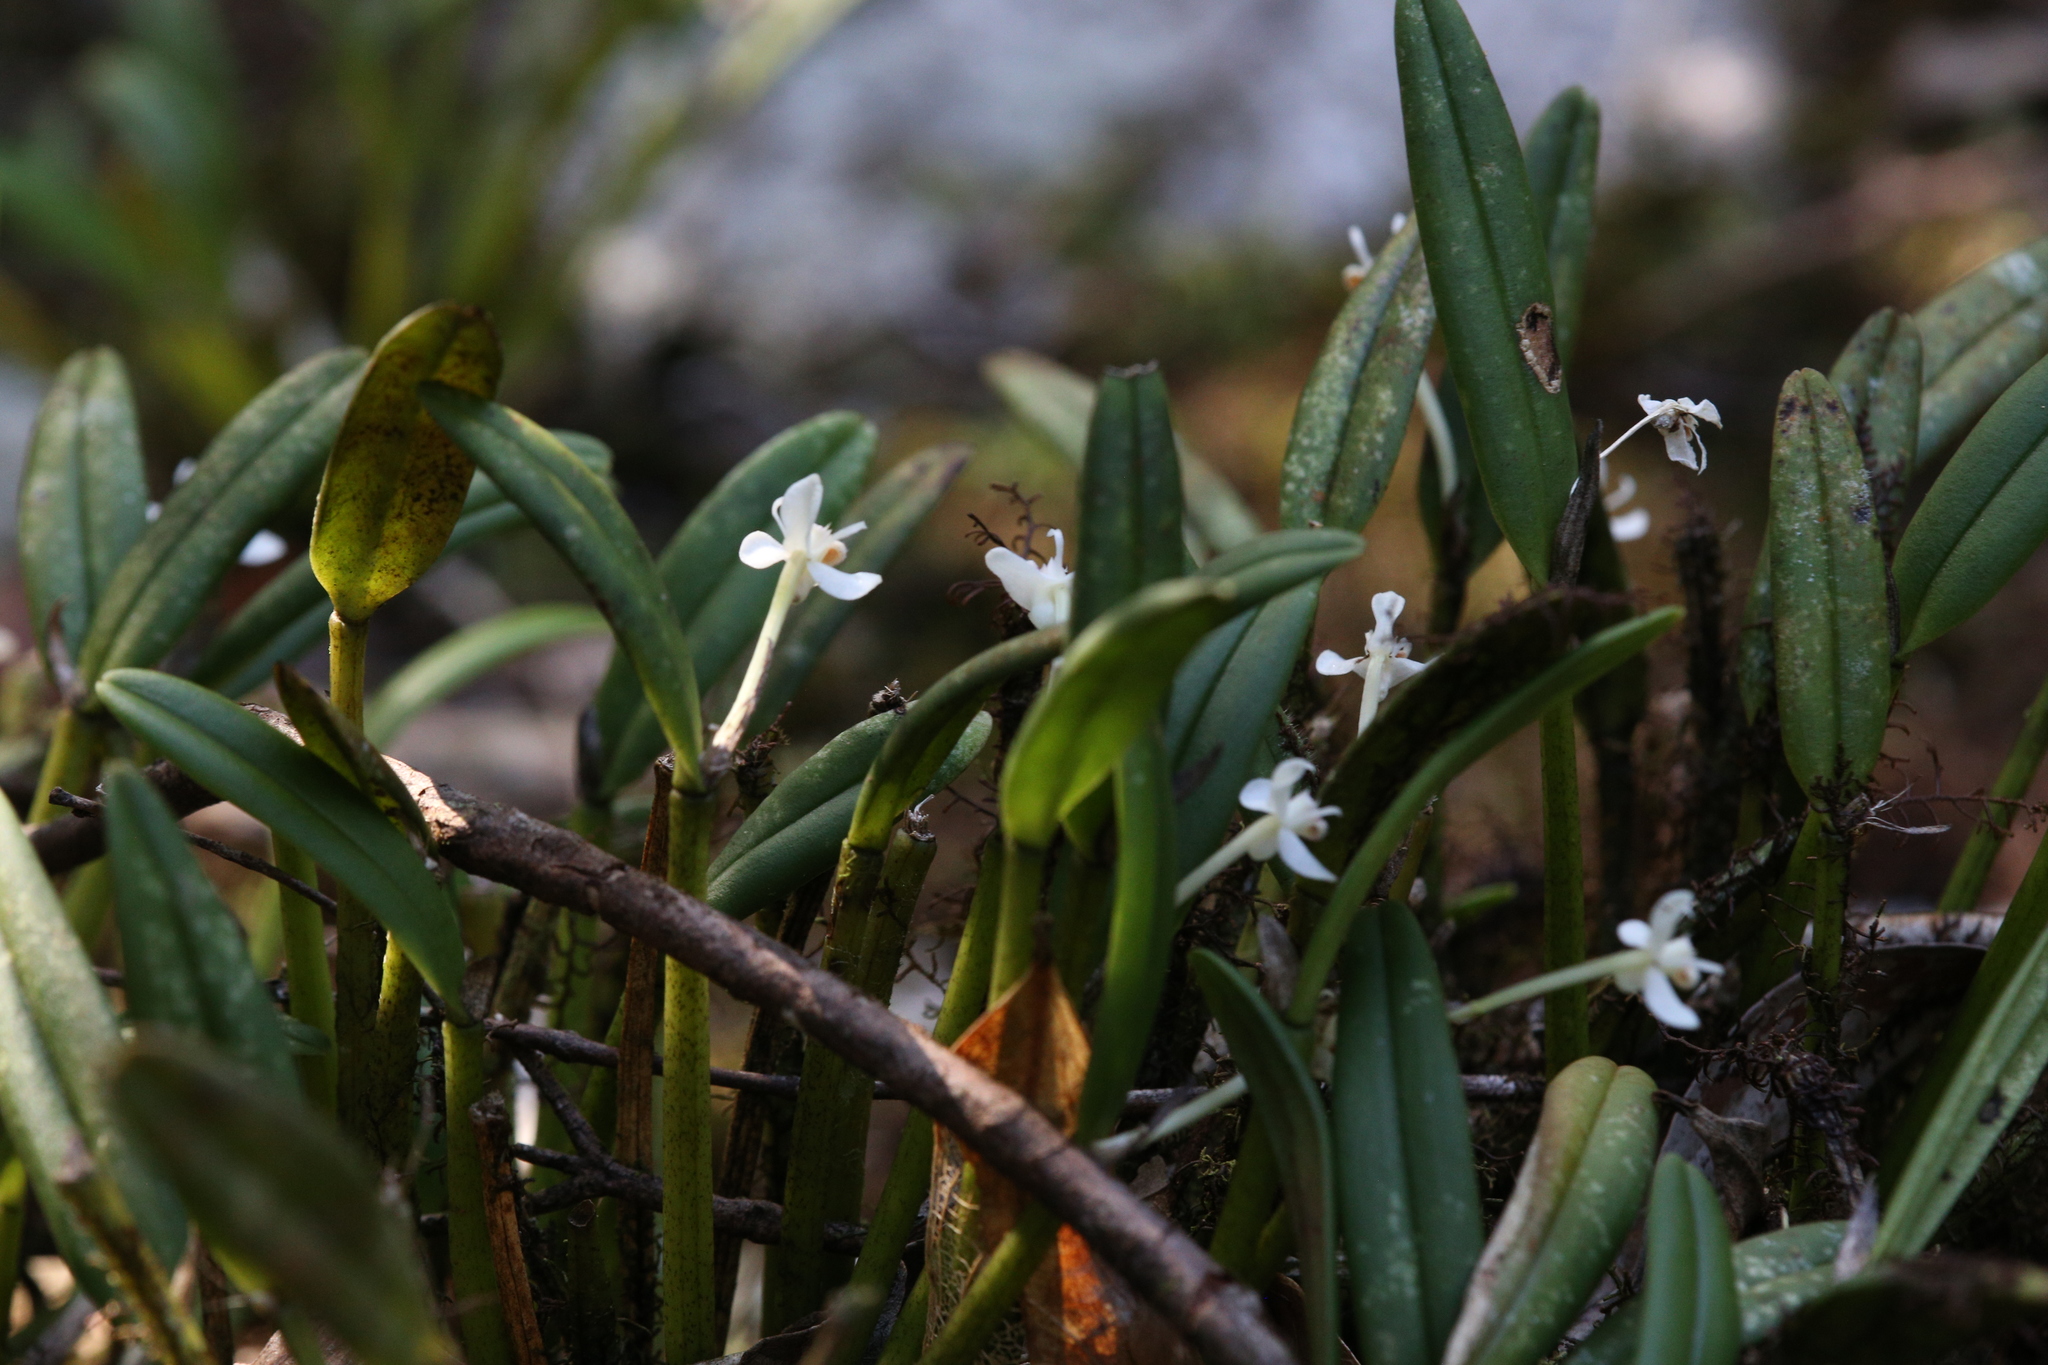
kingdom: Plantae
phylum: Tracheophyta
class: Liliopsida
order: Asparagales
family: Orchidaceae
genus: Dendrobium
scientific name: Dendrobium taylorii
